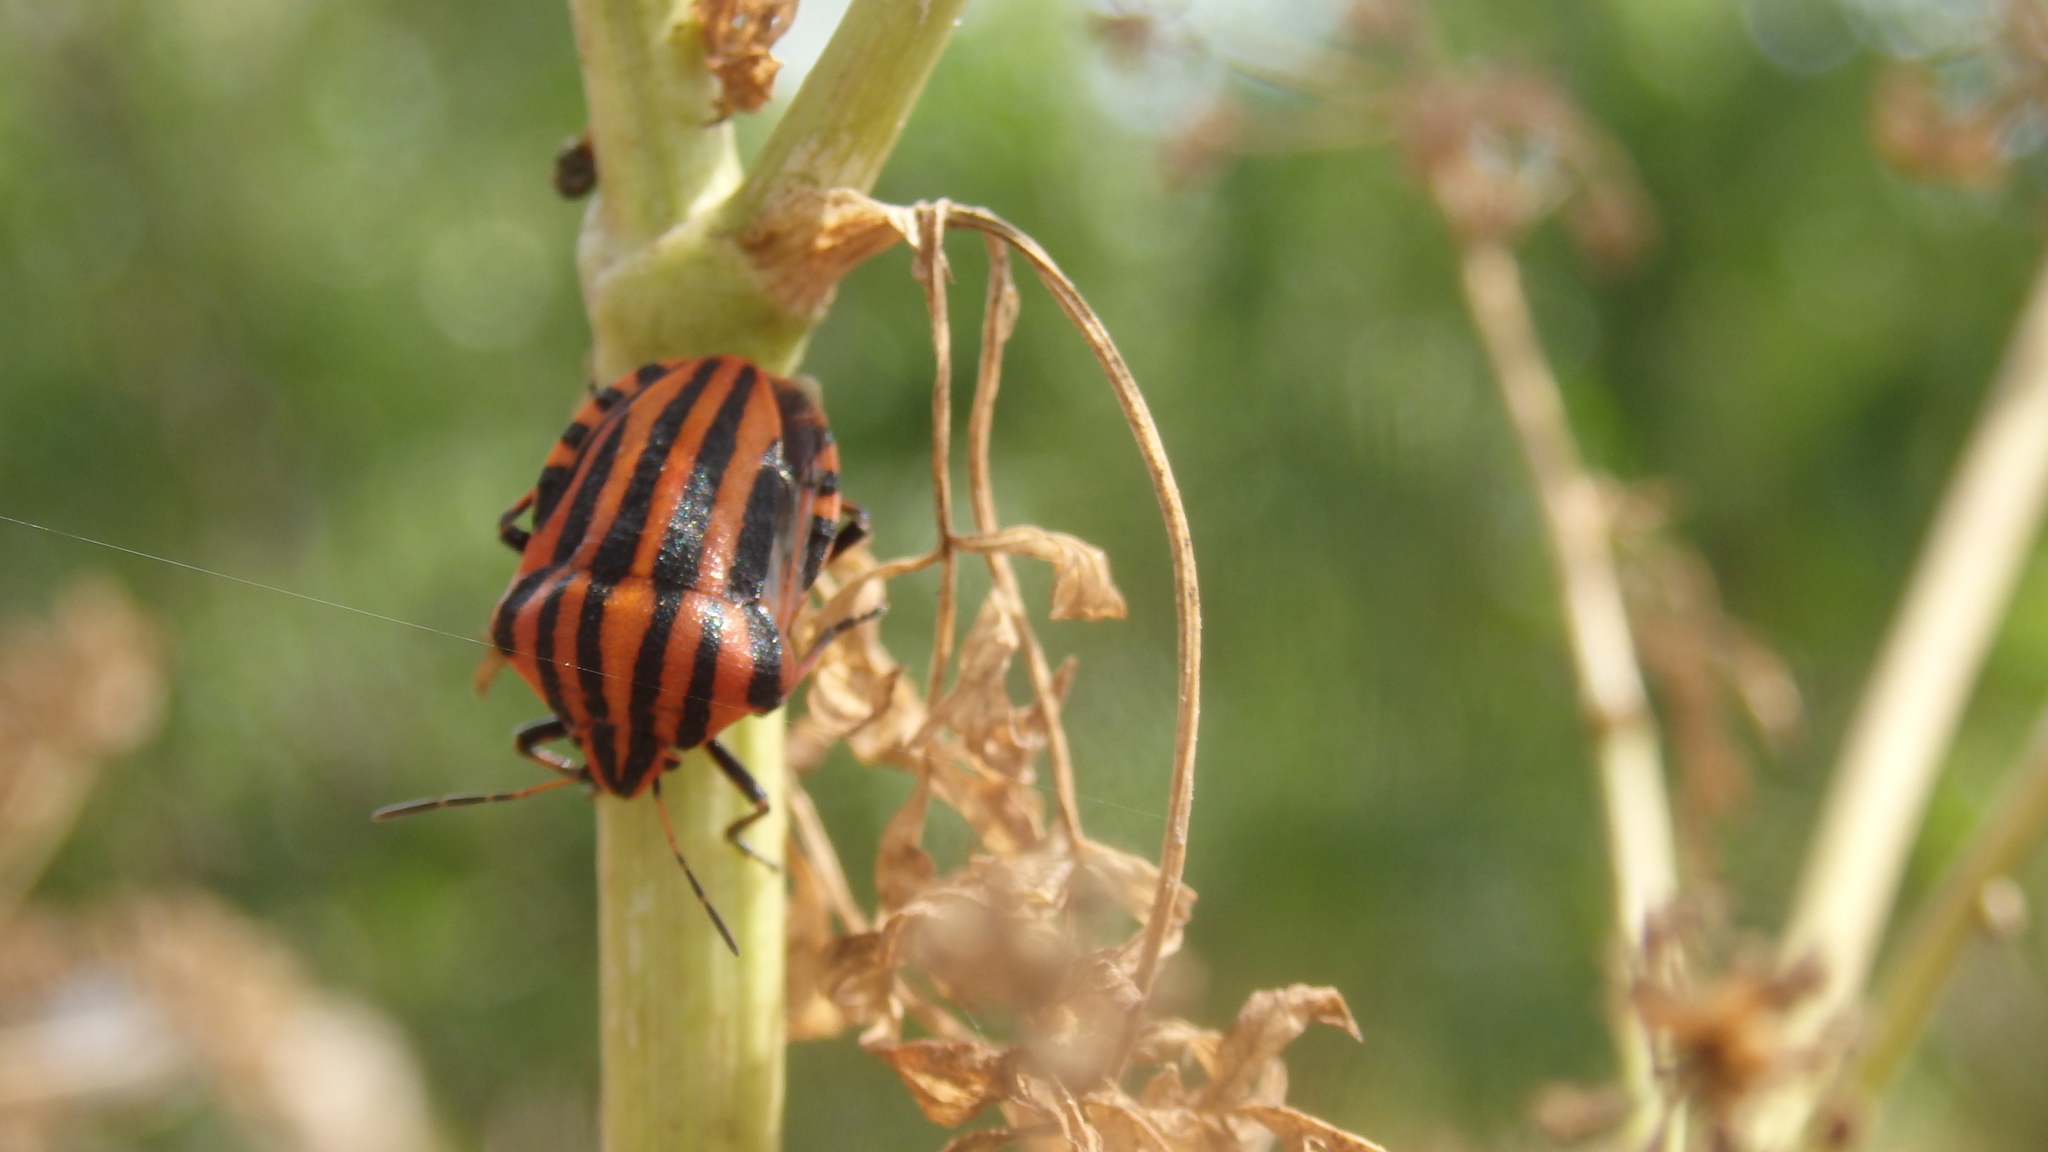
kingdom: Animalia
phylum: Arthropoda
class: Insecta
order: Hemiptera
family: Pentatomidae
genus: Graphosoma
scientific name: Graphosoma italicum
